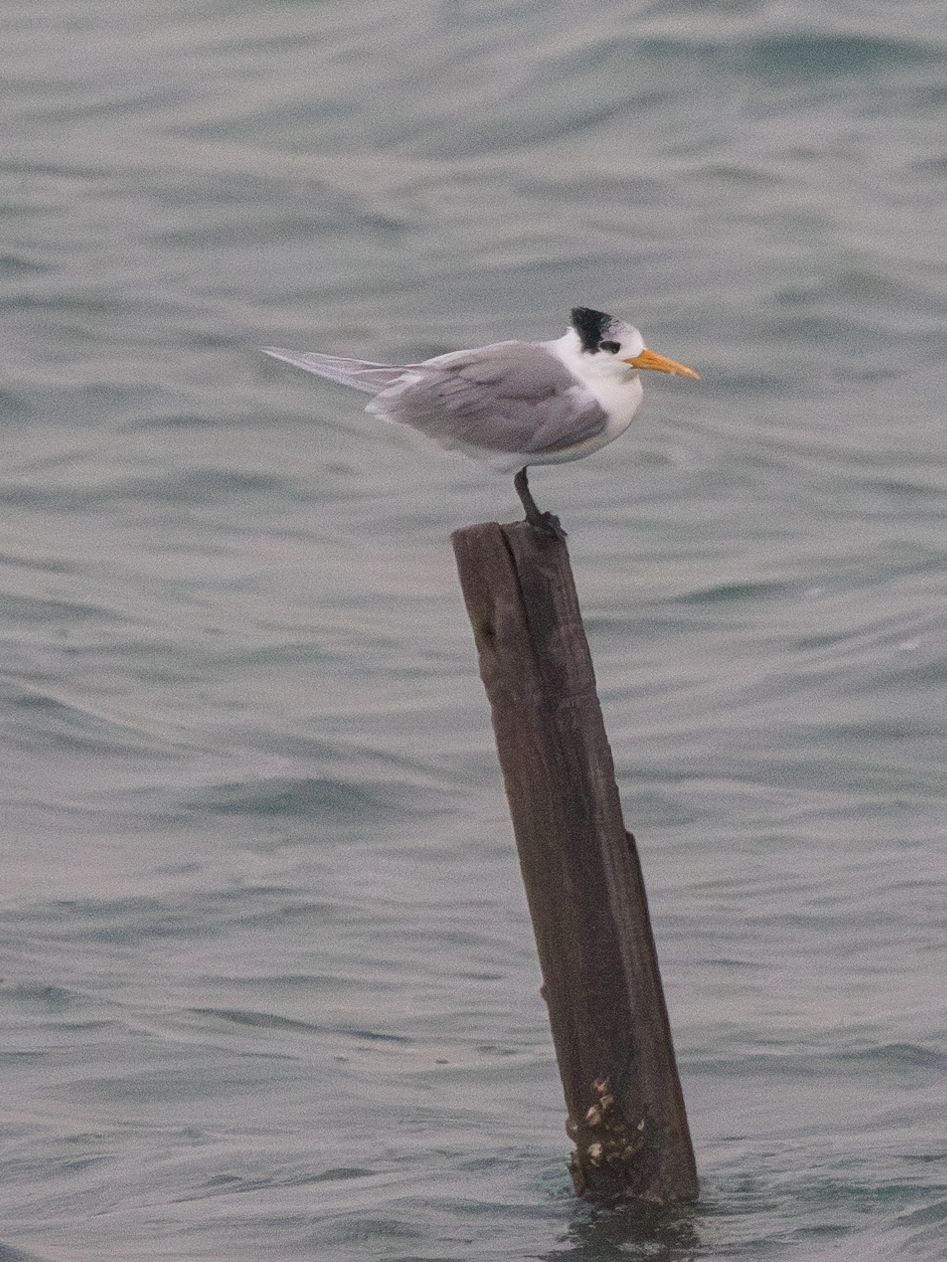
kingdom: Animalia
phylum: Chordata
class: Aves
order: Charadriiformes
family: Laridae
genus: Thalasseus
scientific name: Thalasseus bengalensis
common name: Lesser crested tern
